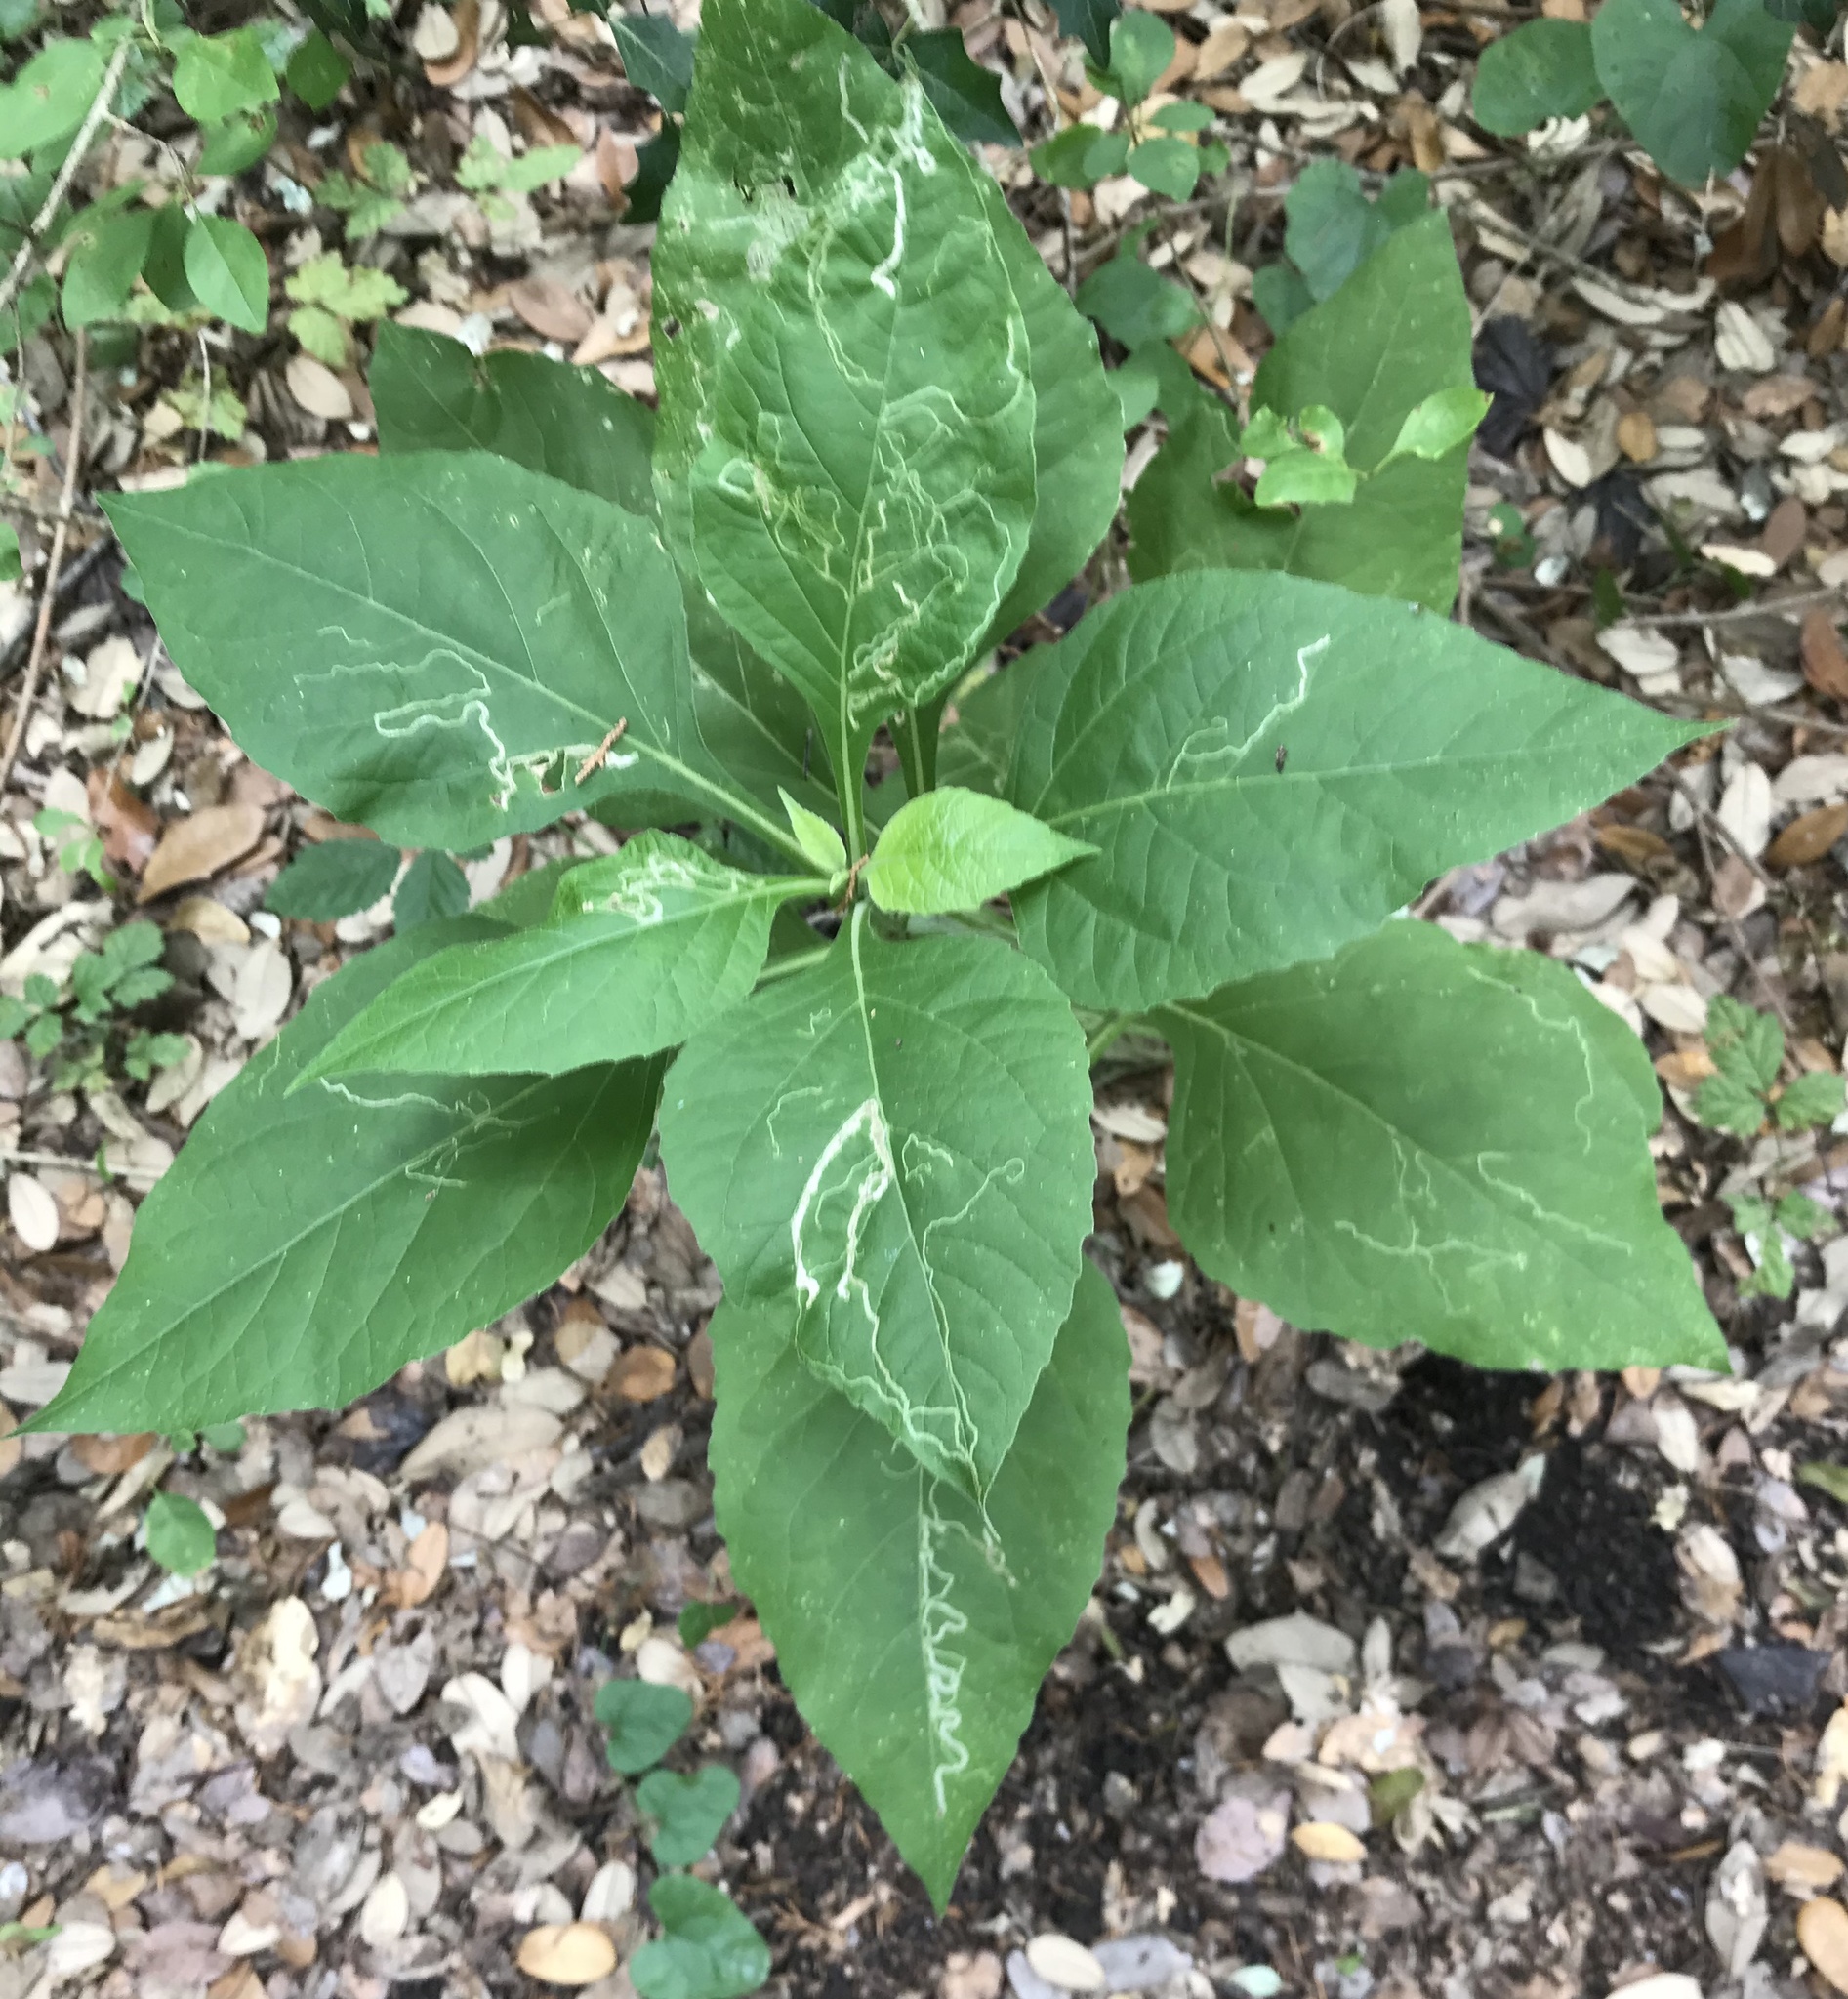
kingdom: Plantae
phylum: Tracheophyta
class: Magnoliopsida
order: Asterales
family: Asteraceae
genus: Verbesina
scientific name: Verbesina virginica
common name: Frostweed
